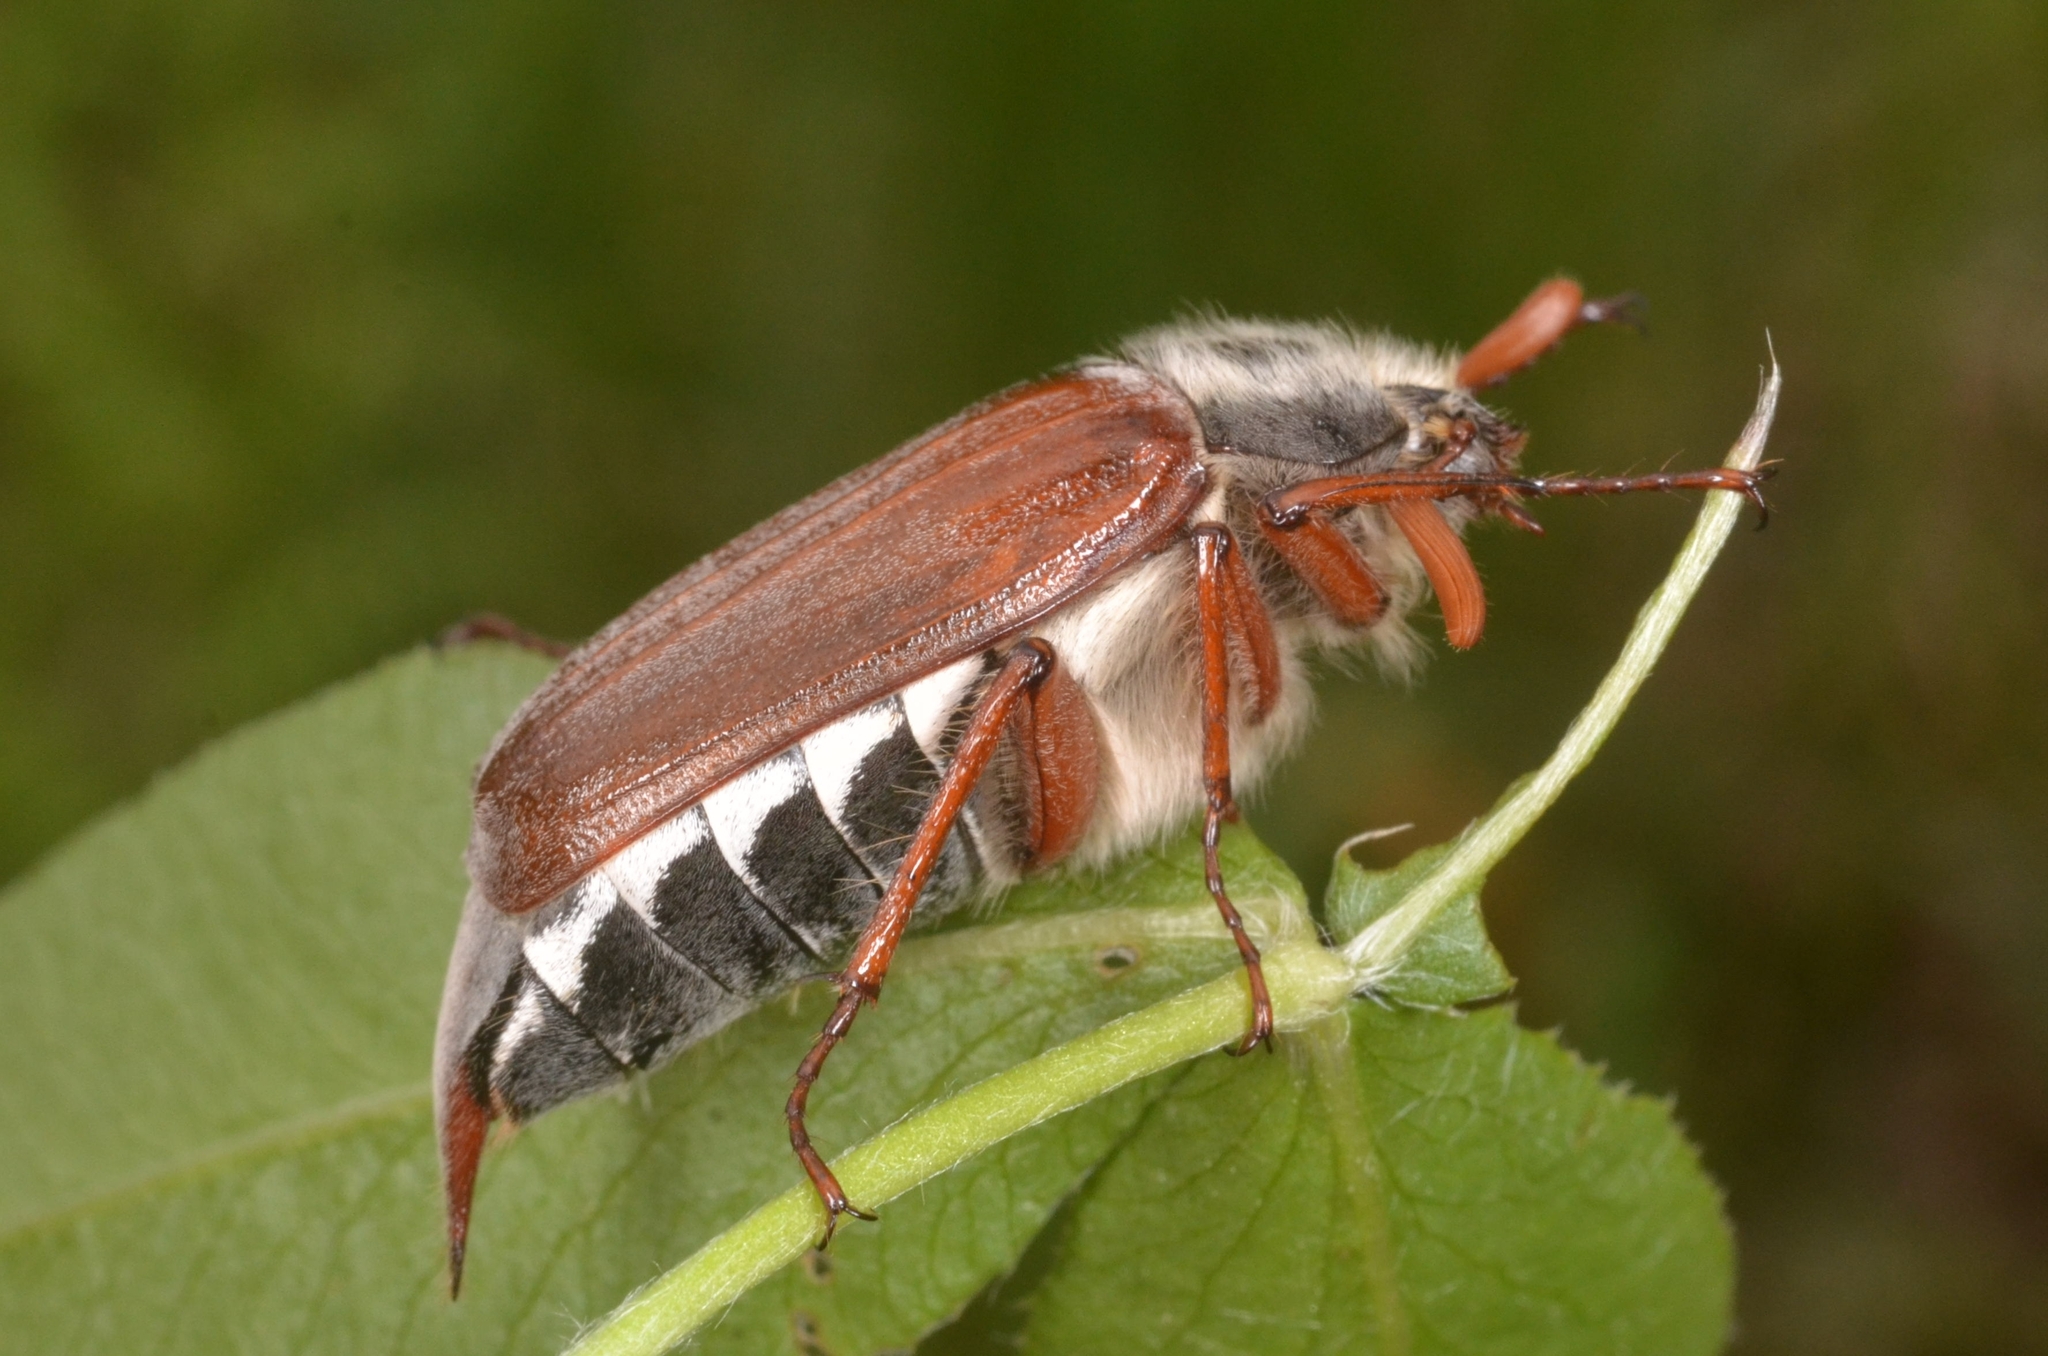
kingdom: Animalia
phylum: Arthropoda
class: Insecta
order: Coleoptera
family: Scarabaeidae
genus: Melolontha
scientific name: Melolontha melolontha
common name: Cockchafer maybeetle
